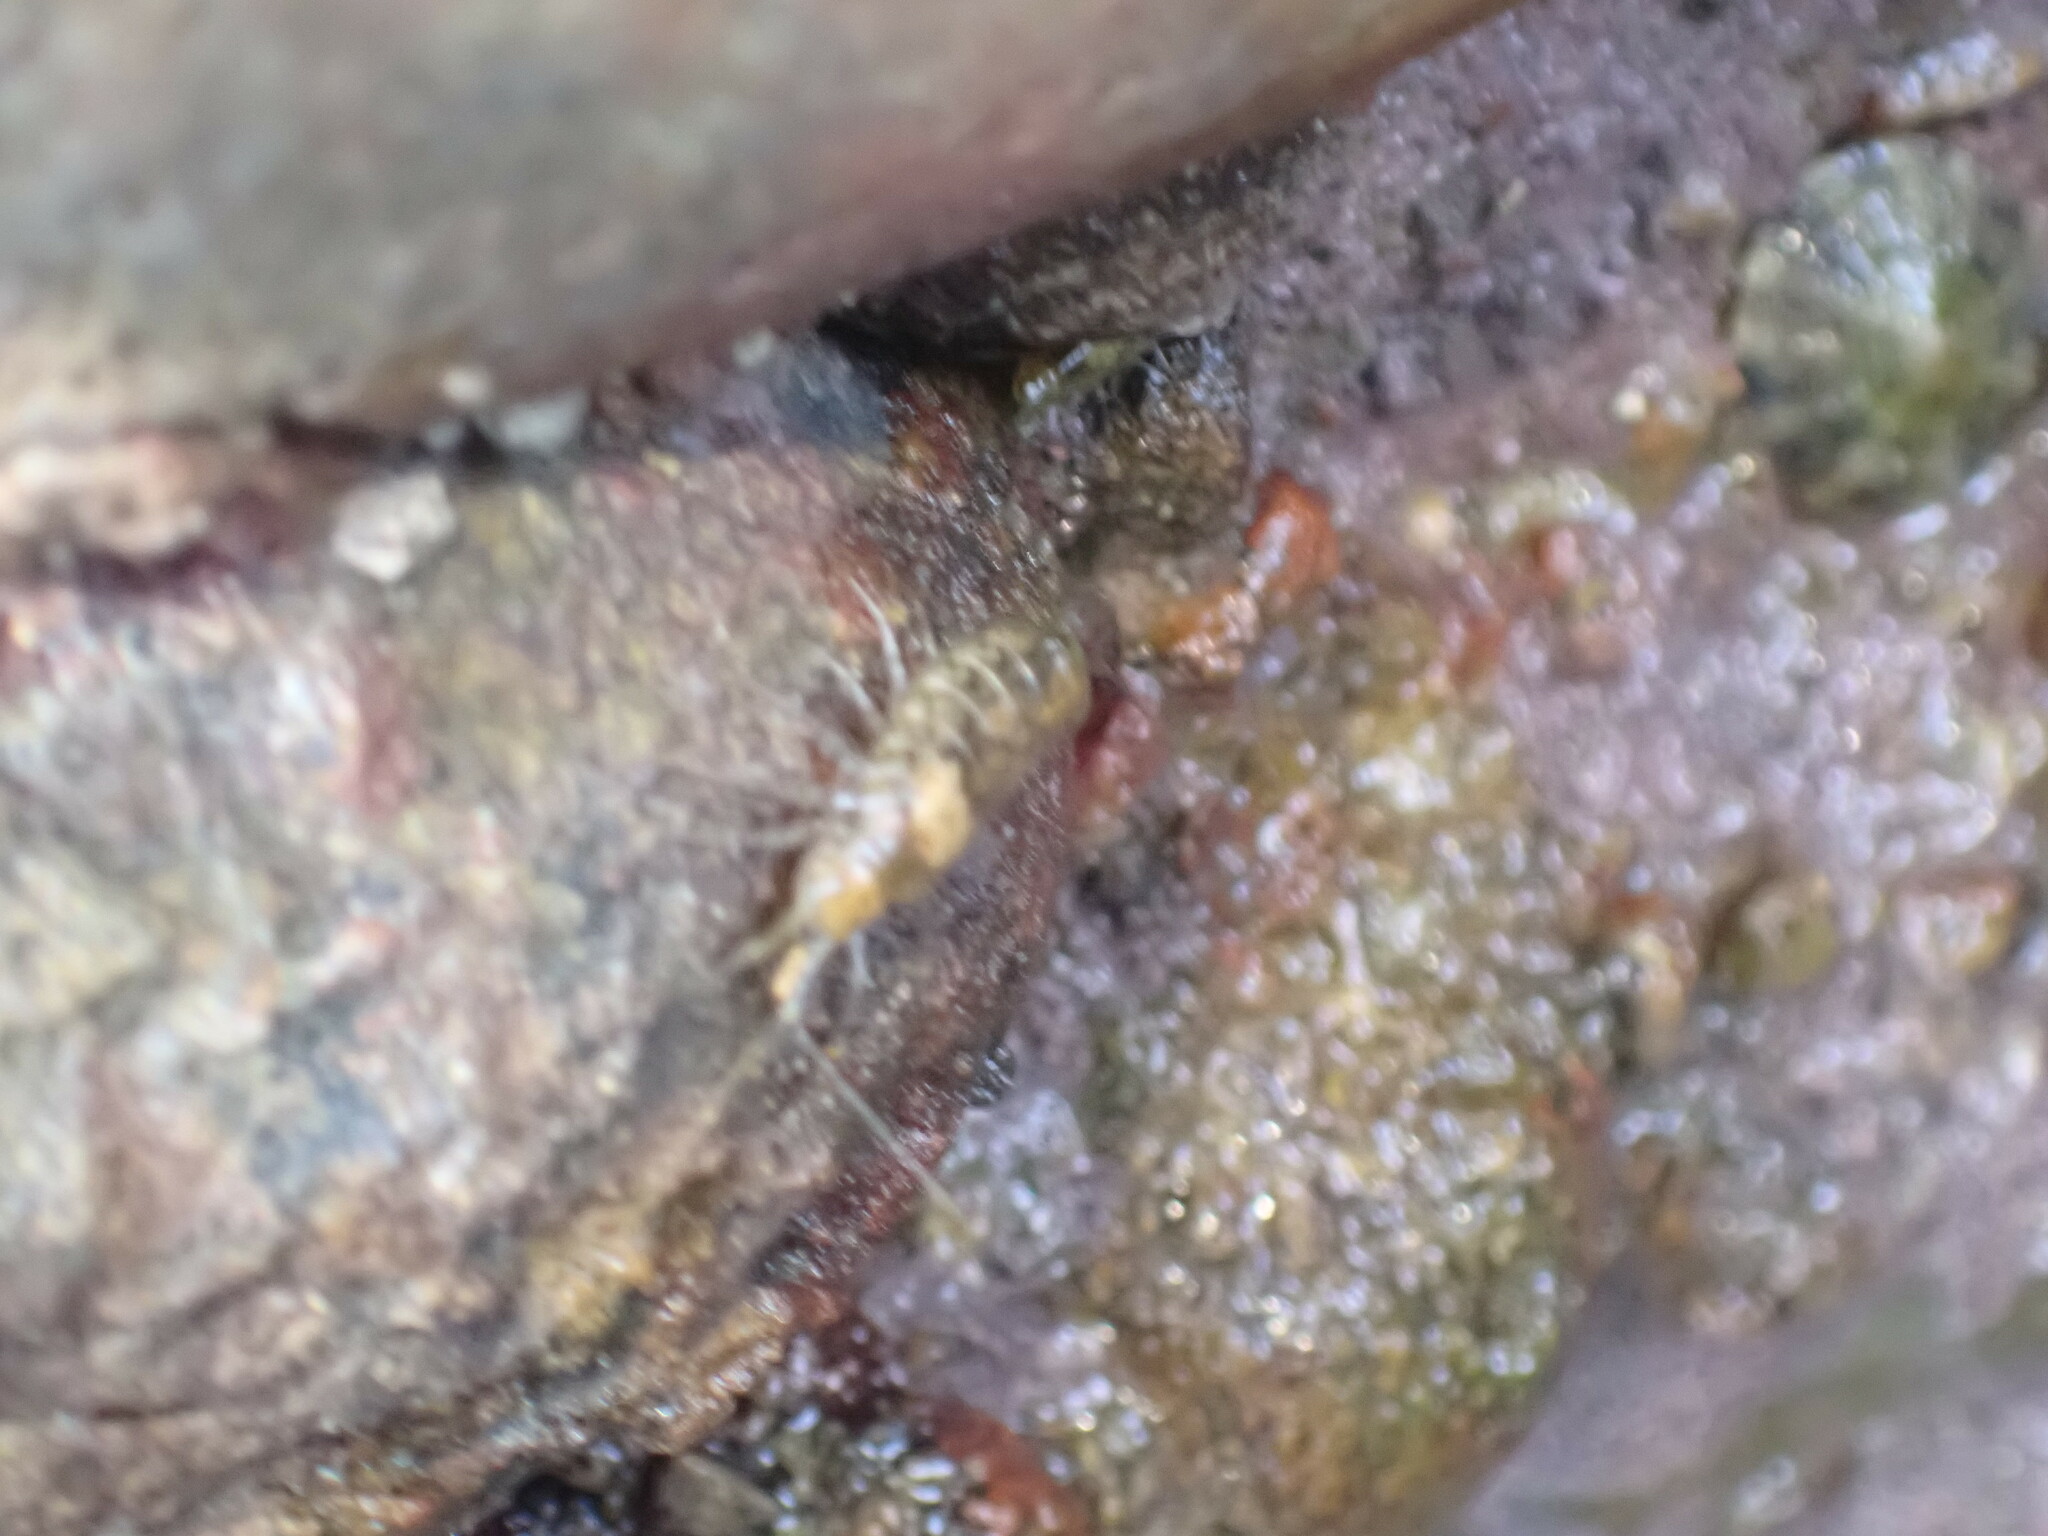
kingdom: Animalia
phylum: Arthropoda
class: Malacostraca
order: Isopoda
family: Ligiidae
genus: Ligia
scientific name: Ligia italica
